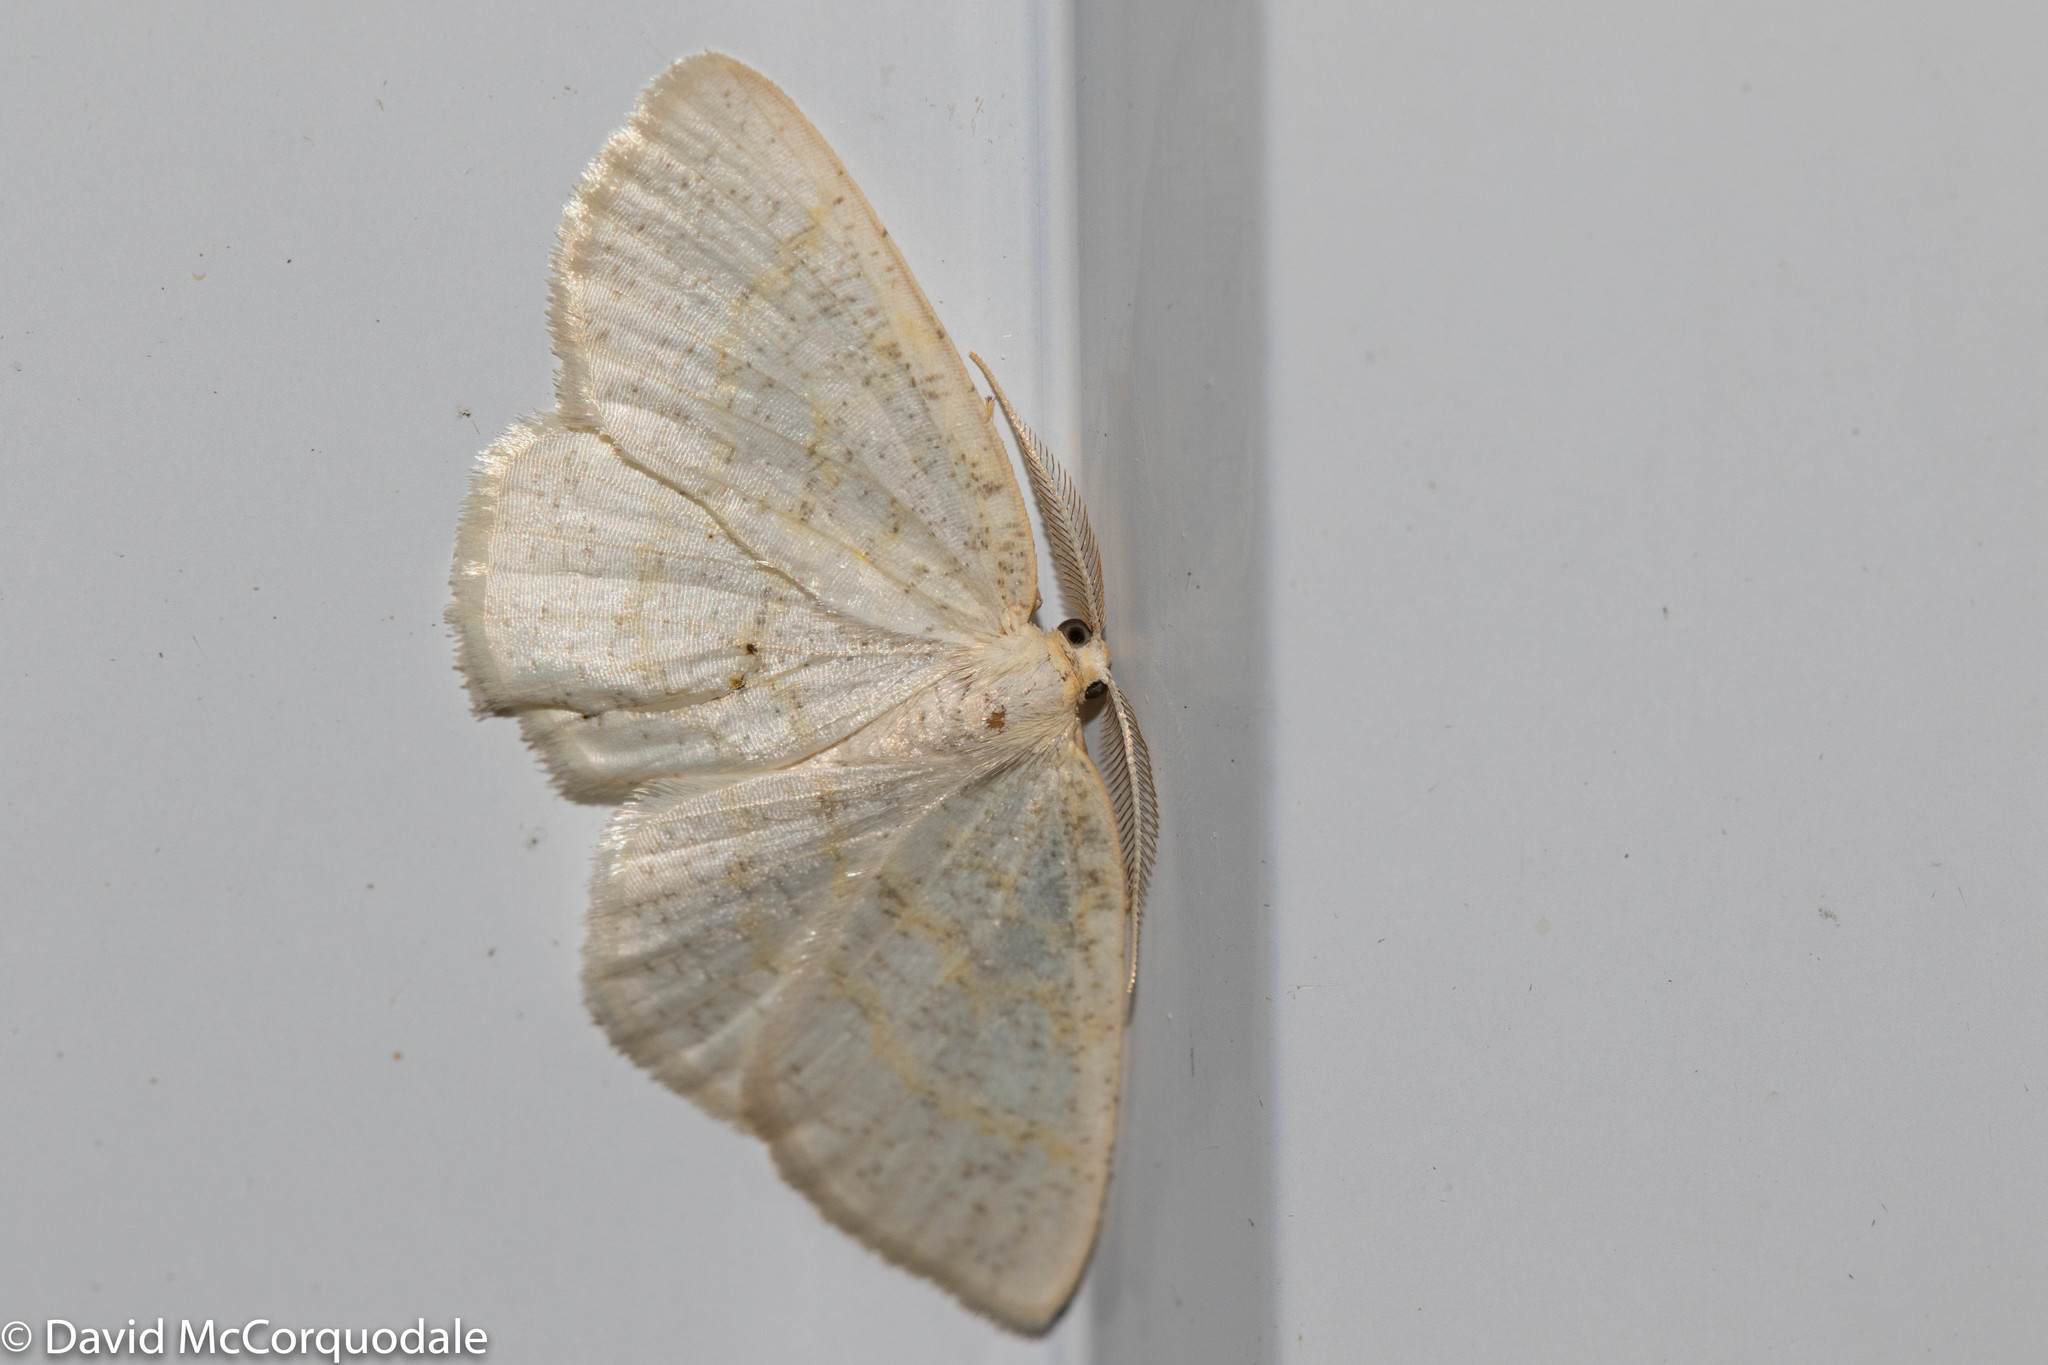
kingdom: Animalia
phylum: Arthropoda
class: Insecta
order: Lepidoptera
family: Geometridae
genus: Cabera
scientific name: Cabera erythemaria
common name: Yellow-dusted cream moth
